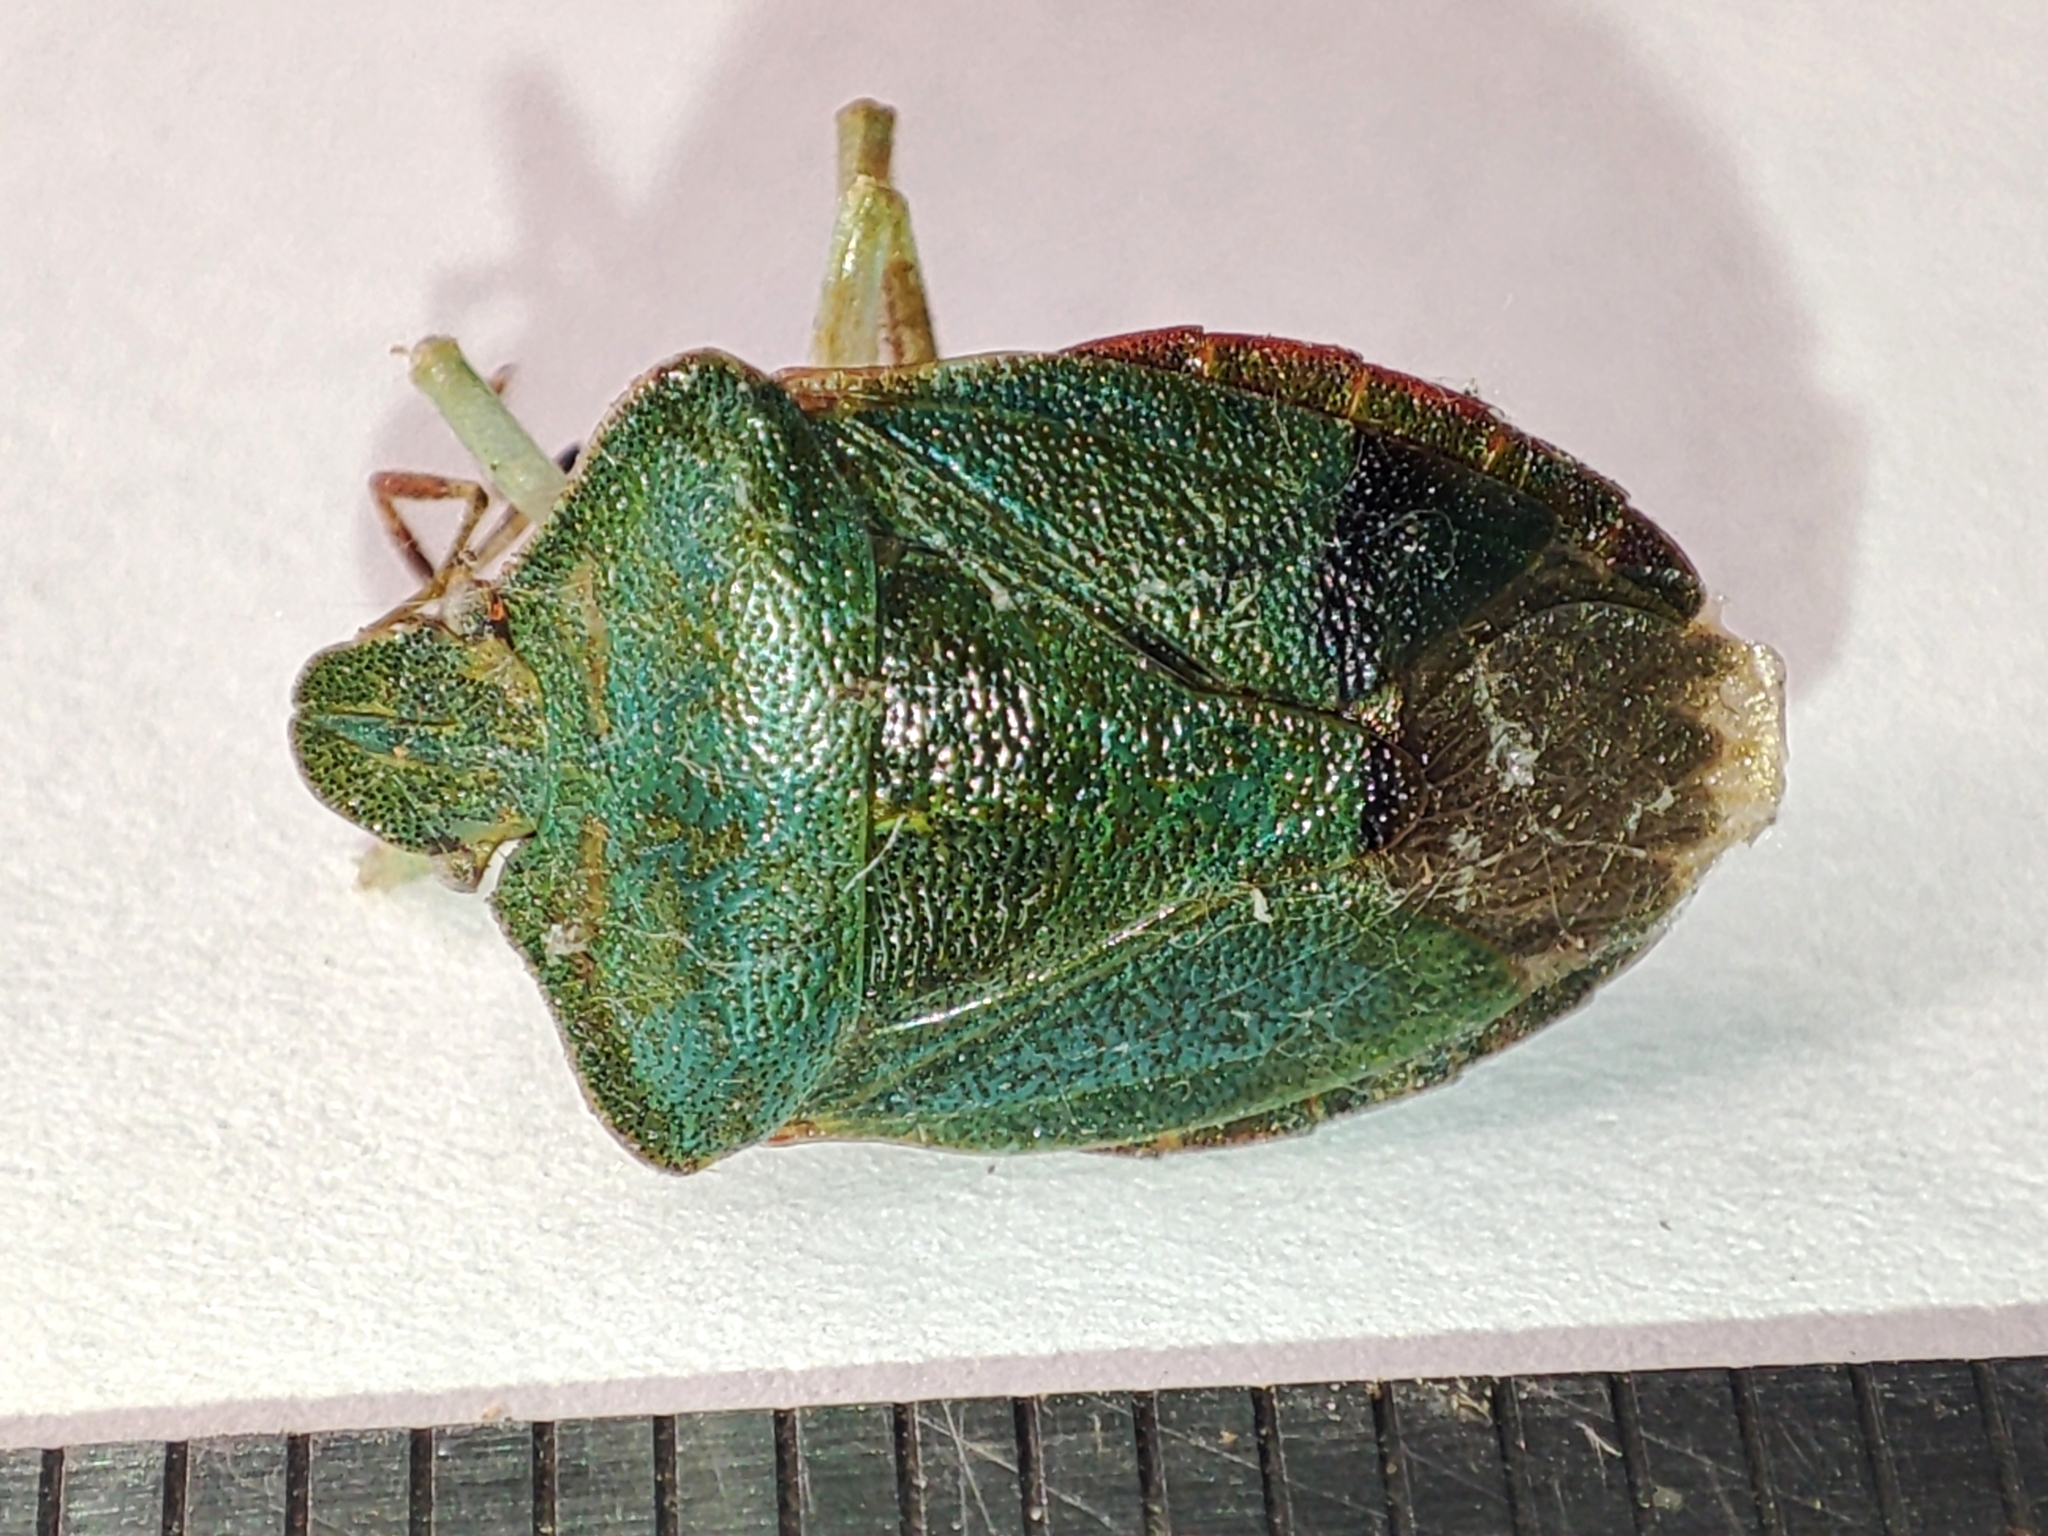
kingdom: Animalia
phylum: Arthropoda
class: Insecta
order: Hemiptera
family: Pentatomidae
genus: Palomena
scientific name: Palomena prasina
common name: Green shieldbug
